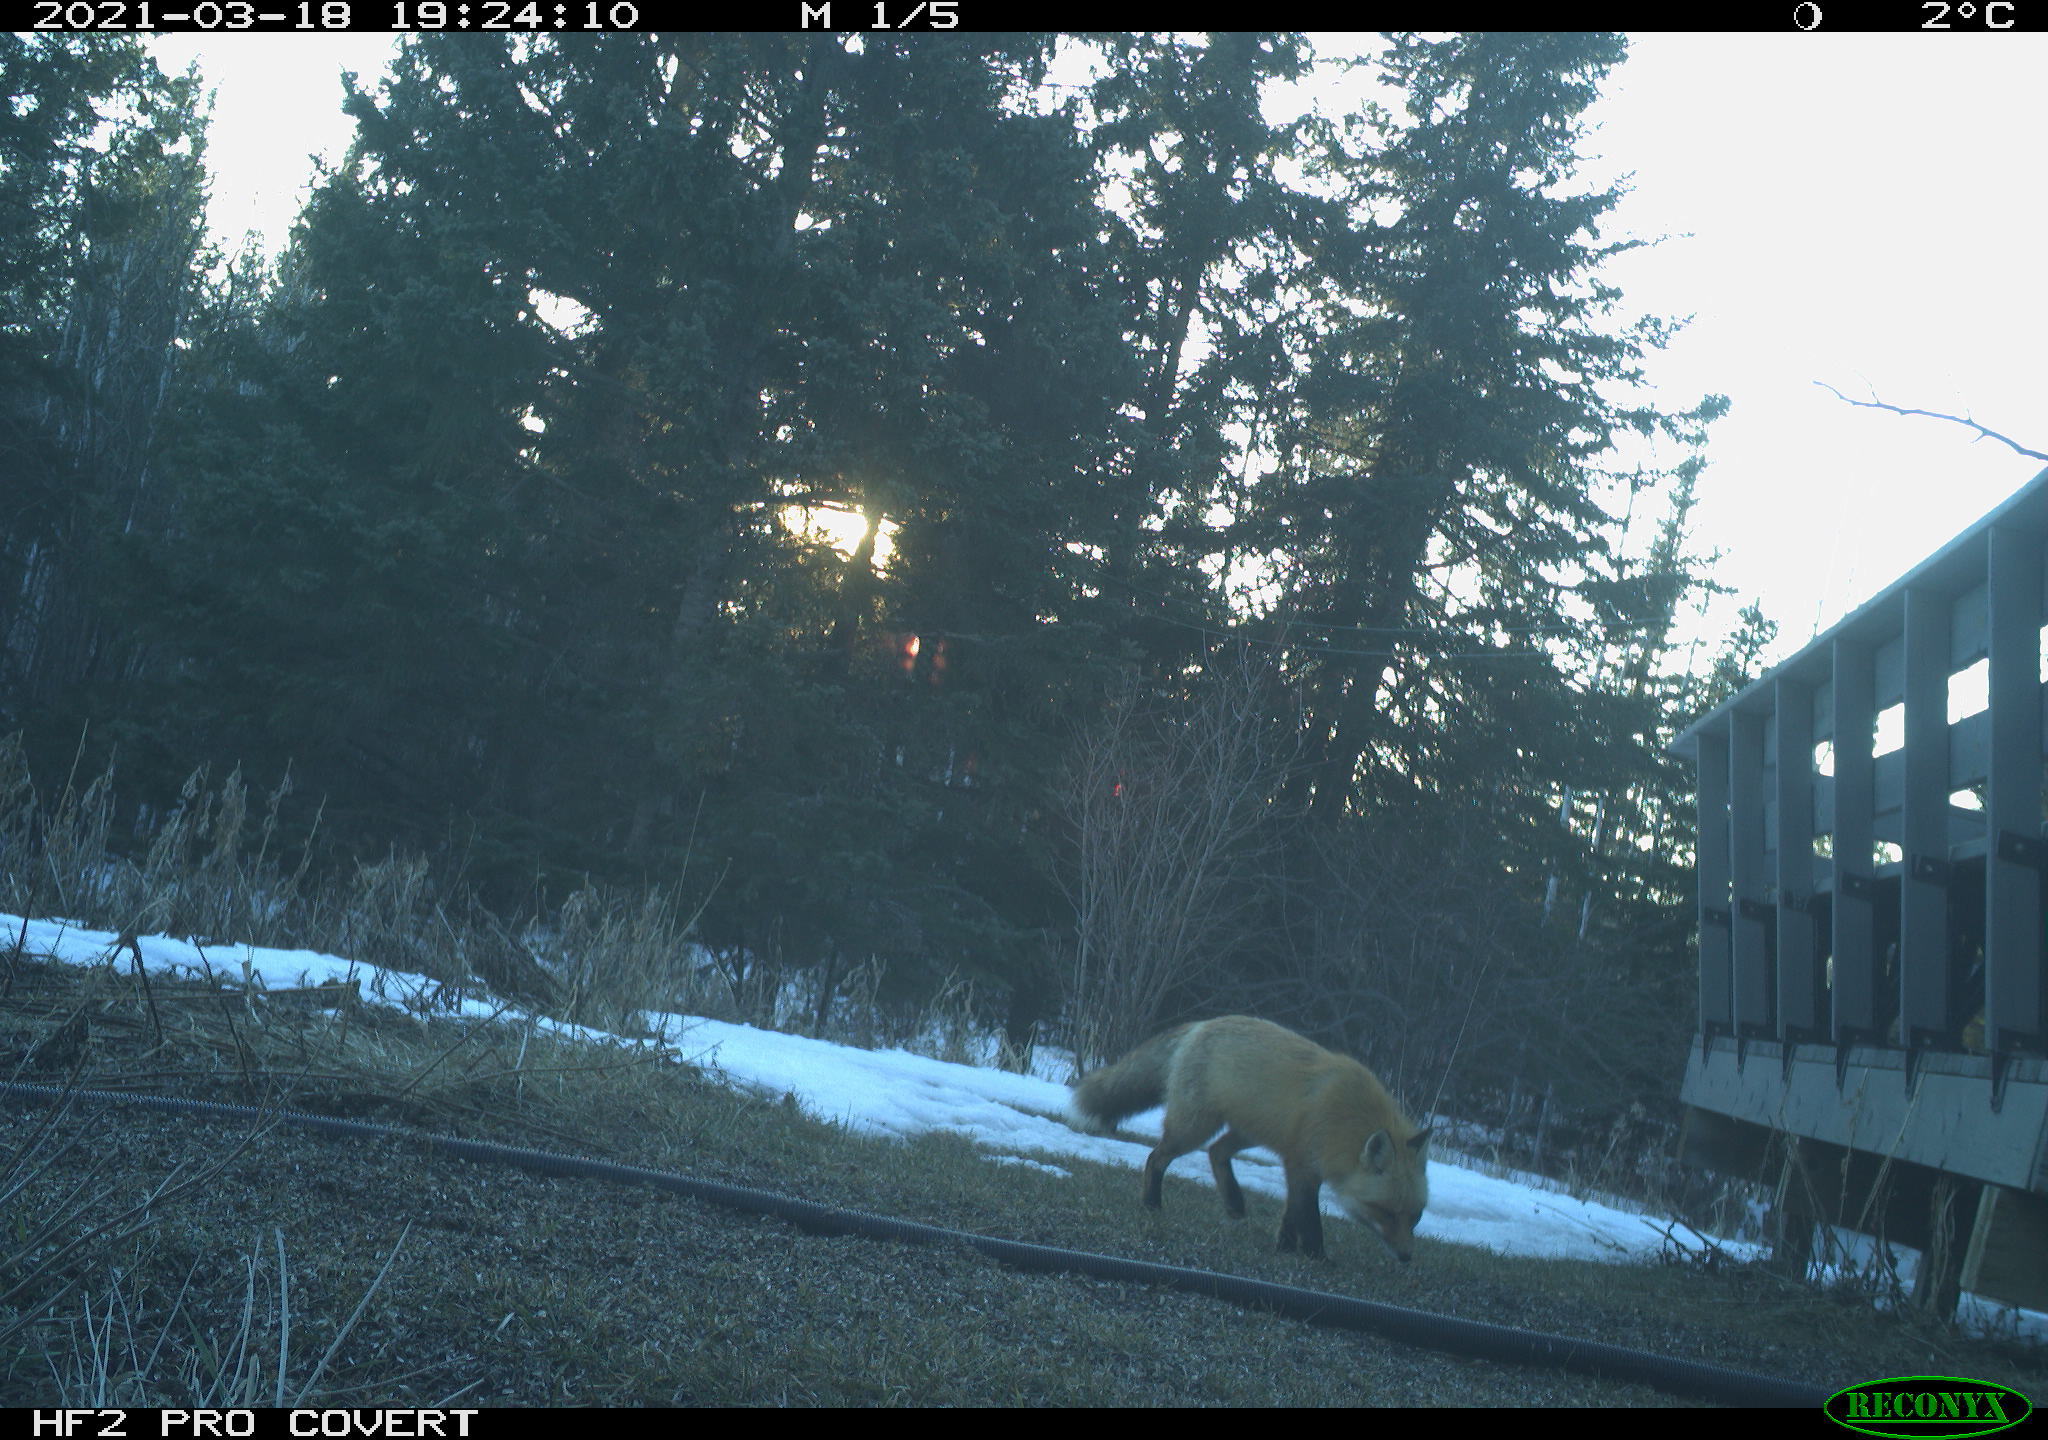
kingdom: Animalia
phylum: Chordata
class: Mammalia
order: Carnivora
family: Canidae
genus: Vulpes
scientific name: Vulpes vulpes
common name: Red fox
